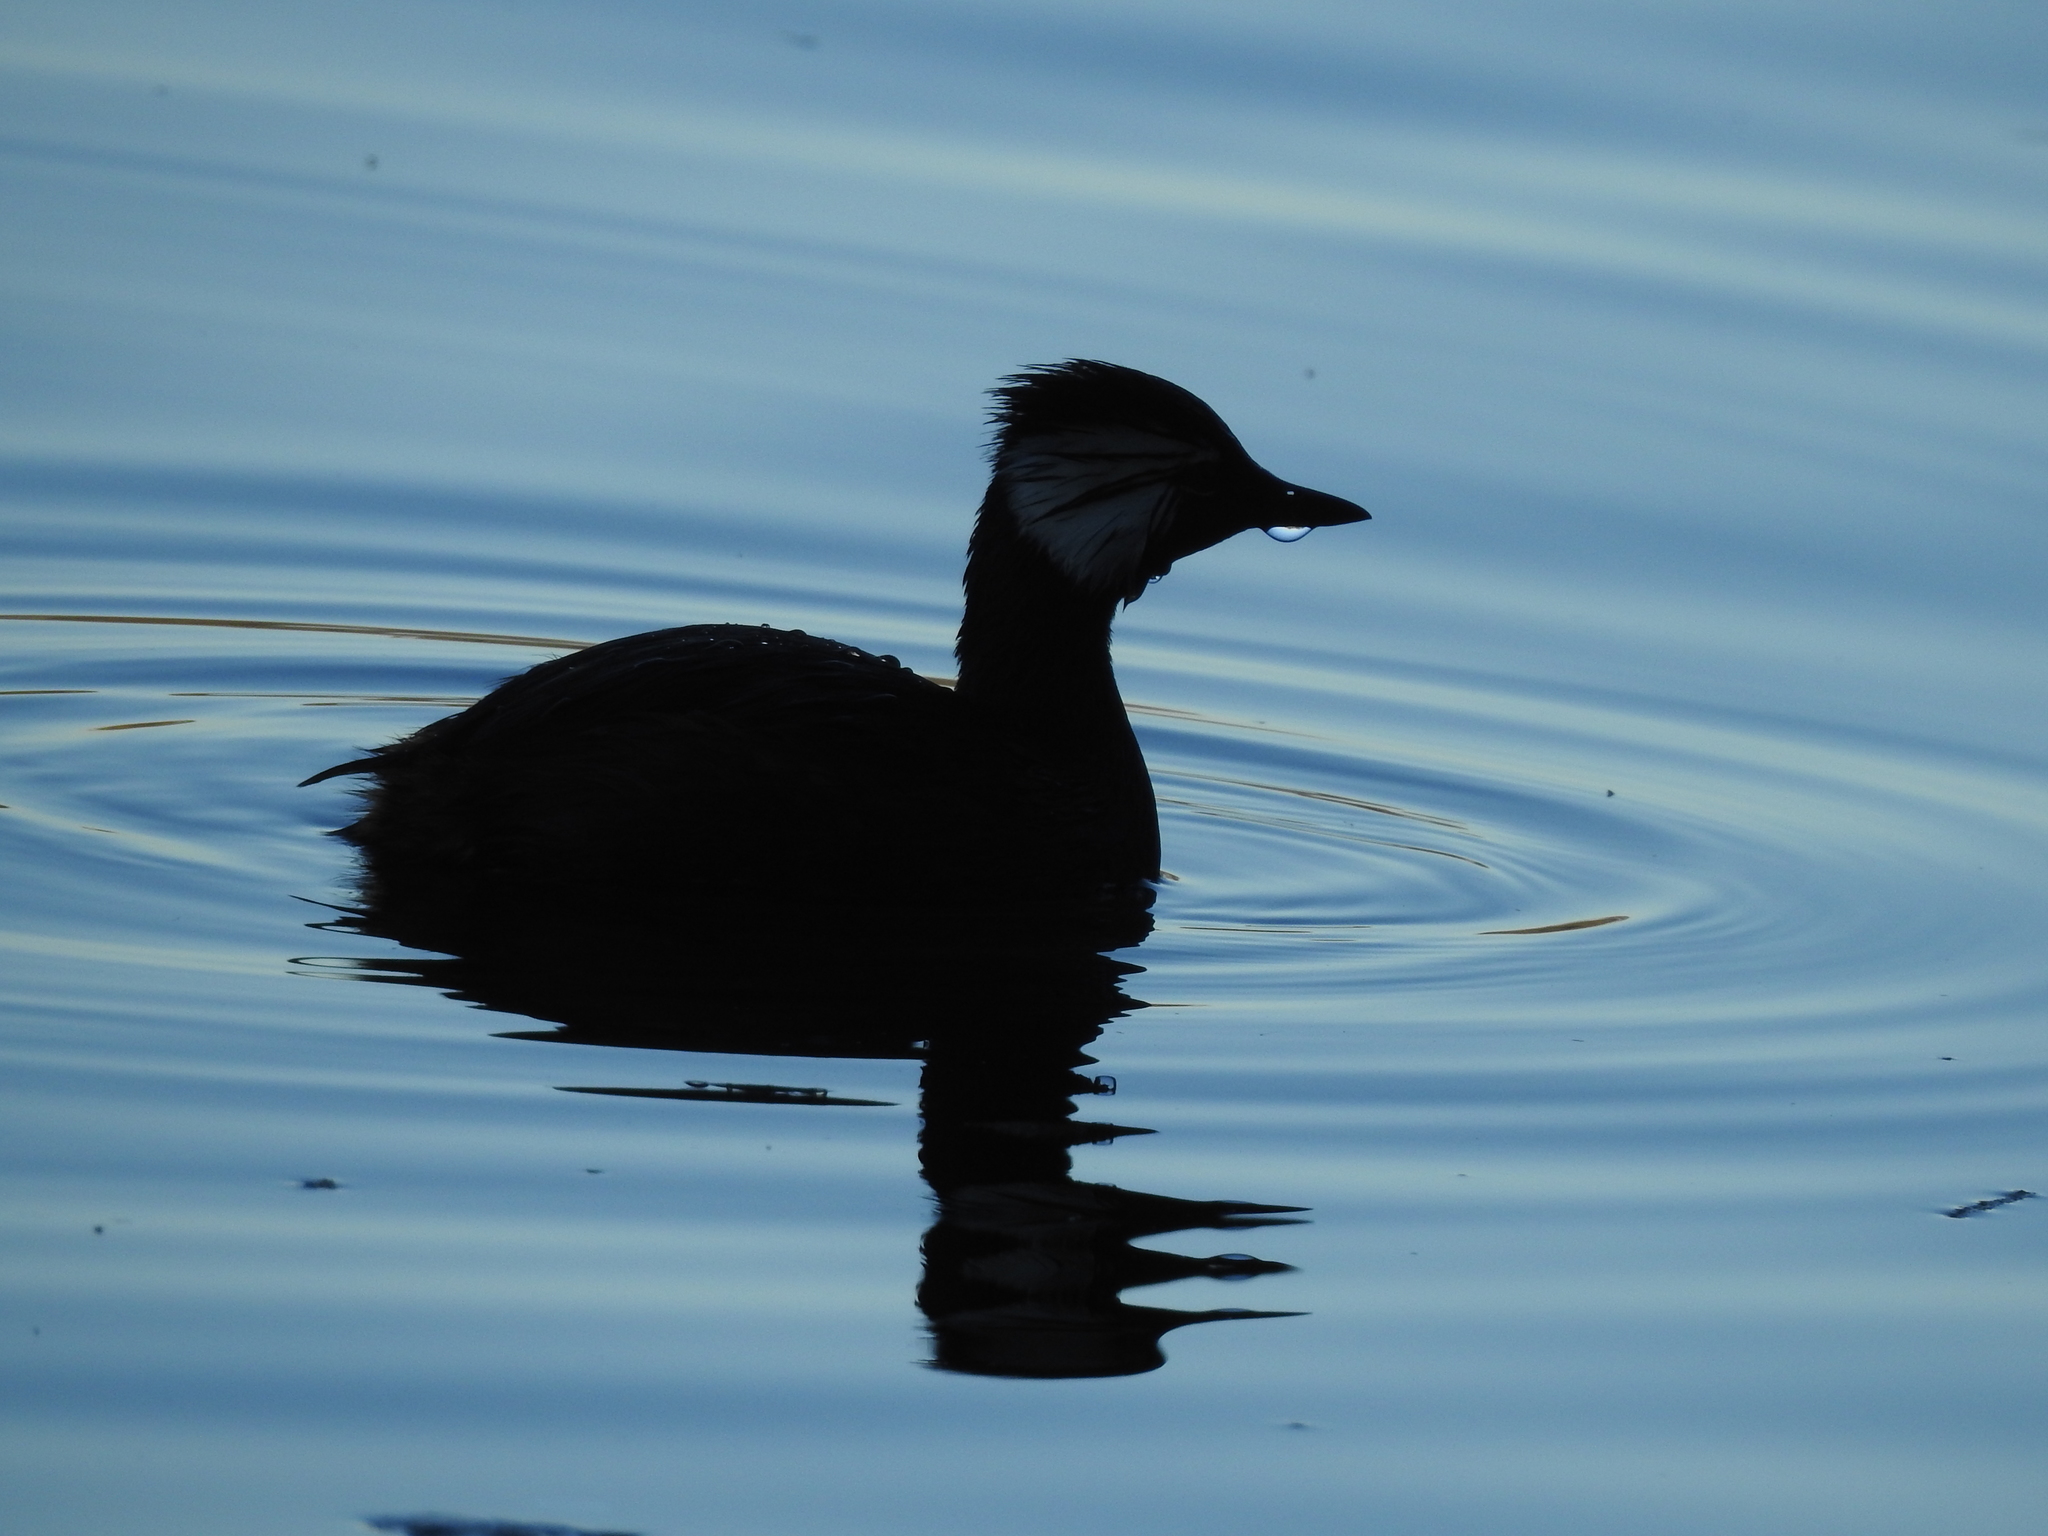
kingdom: Animalia
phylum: Chordata
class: Aves
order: Podicipediformes
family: Podicipedidae
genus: Rollandia
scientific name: Rollandia rolland
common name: White-tufted grebe
